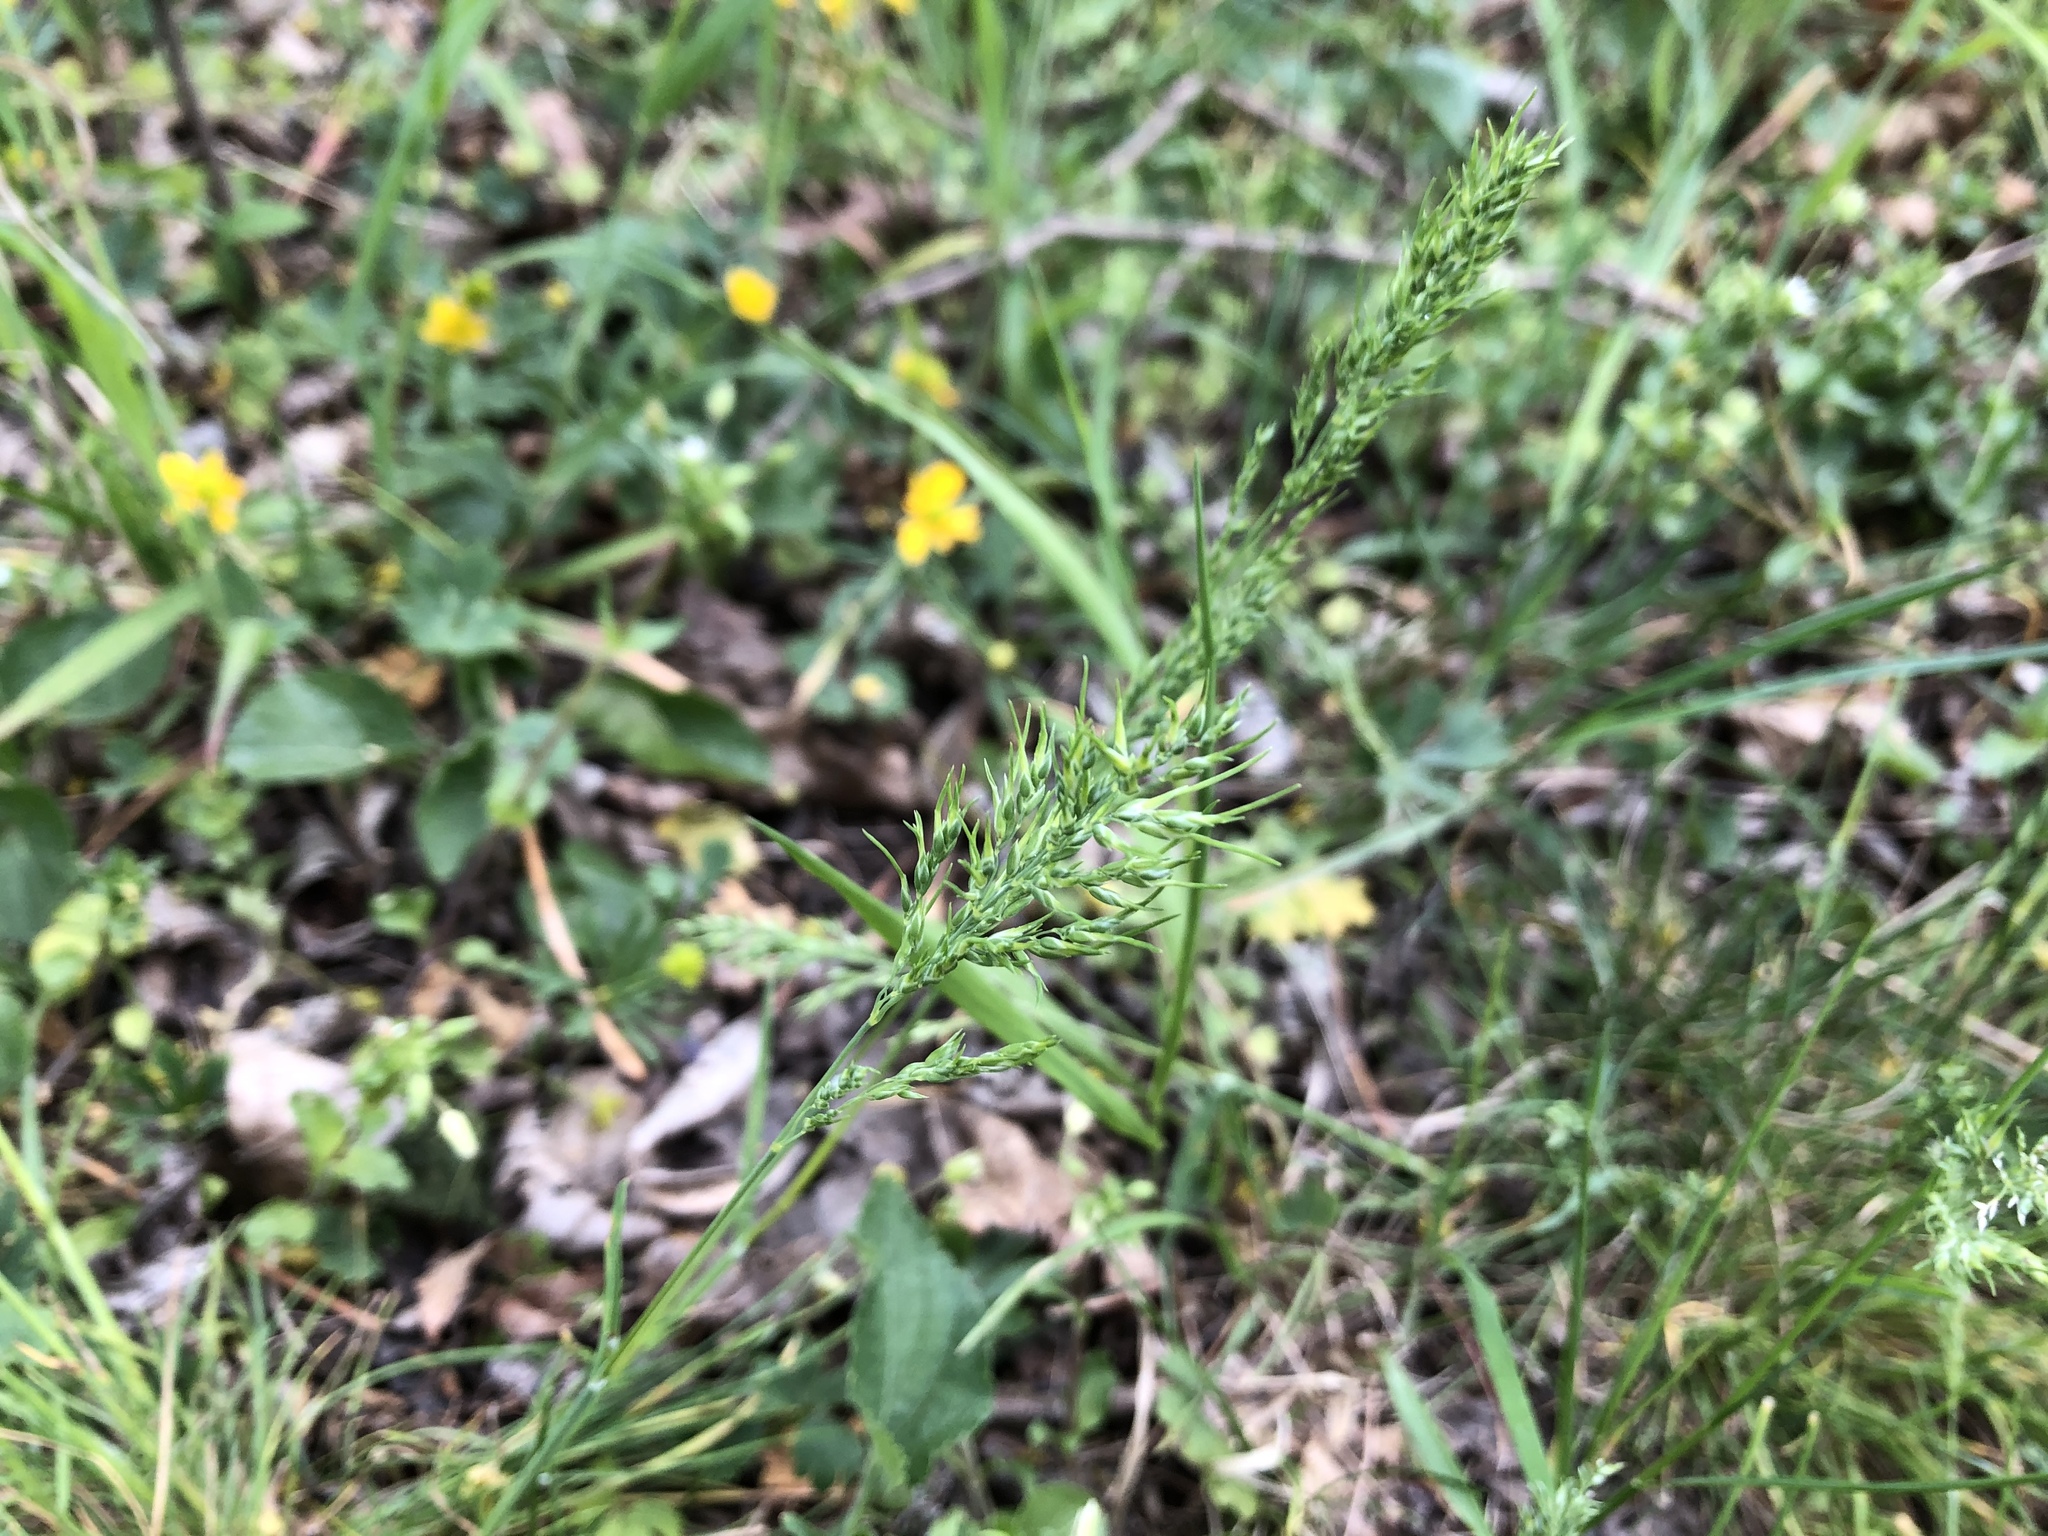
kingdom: Plantae
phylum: Tracheophyta
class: Liliopsida
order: Poales
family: Poaceae
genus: Poa
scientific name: Poa bulbosa
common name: Bulbous bluegrass
